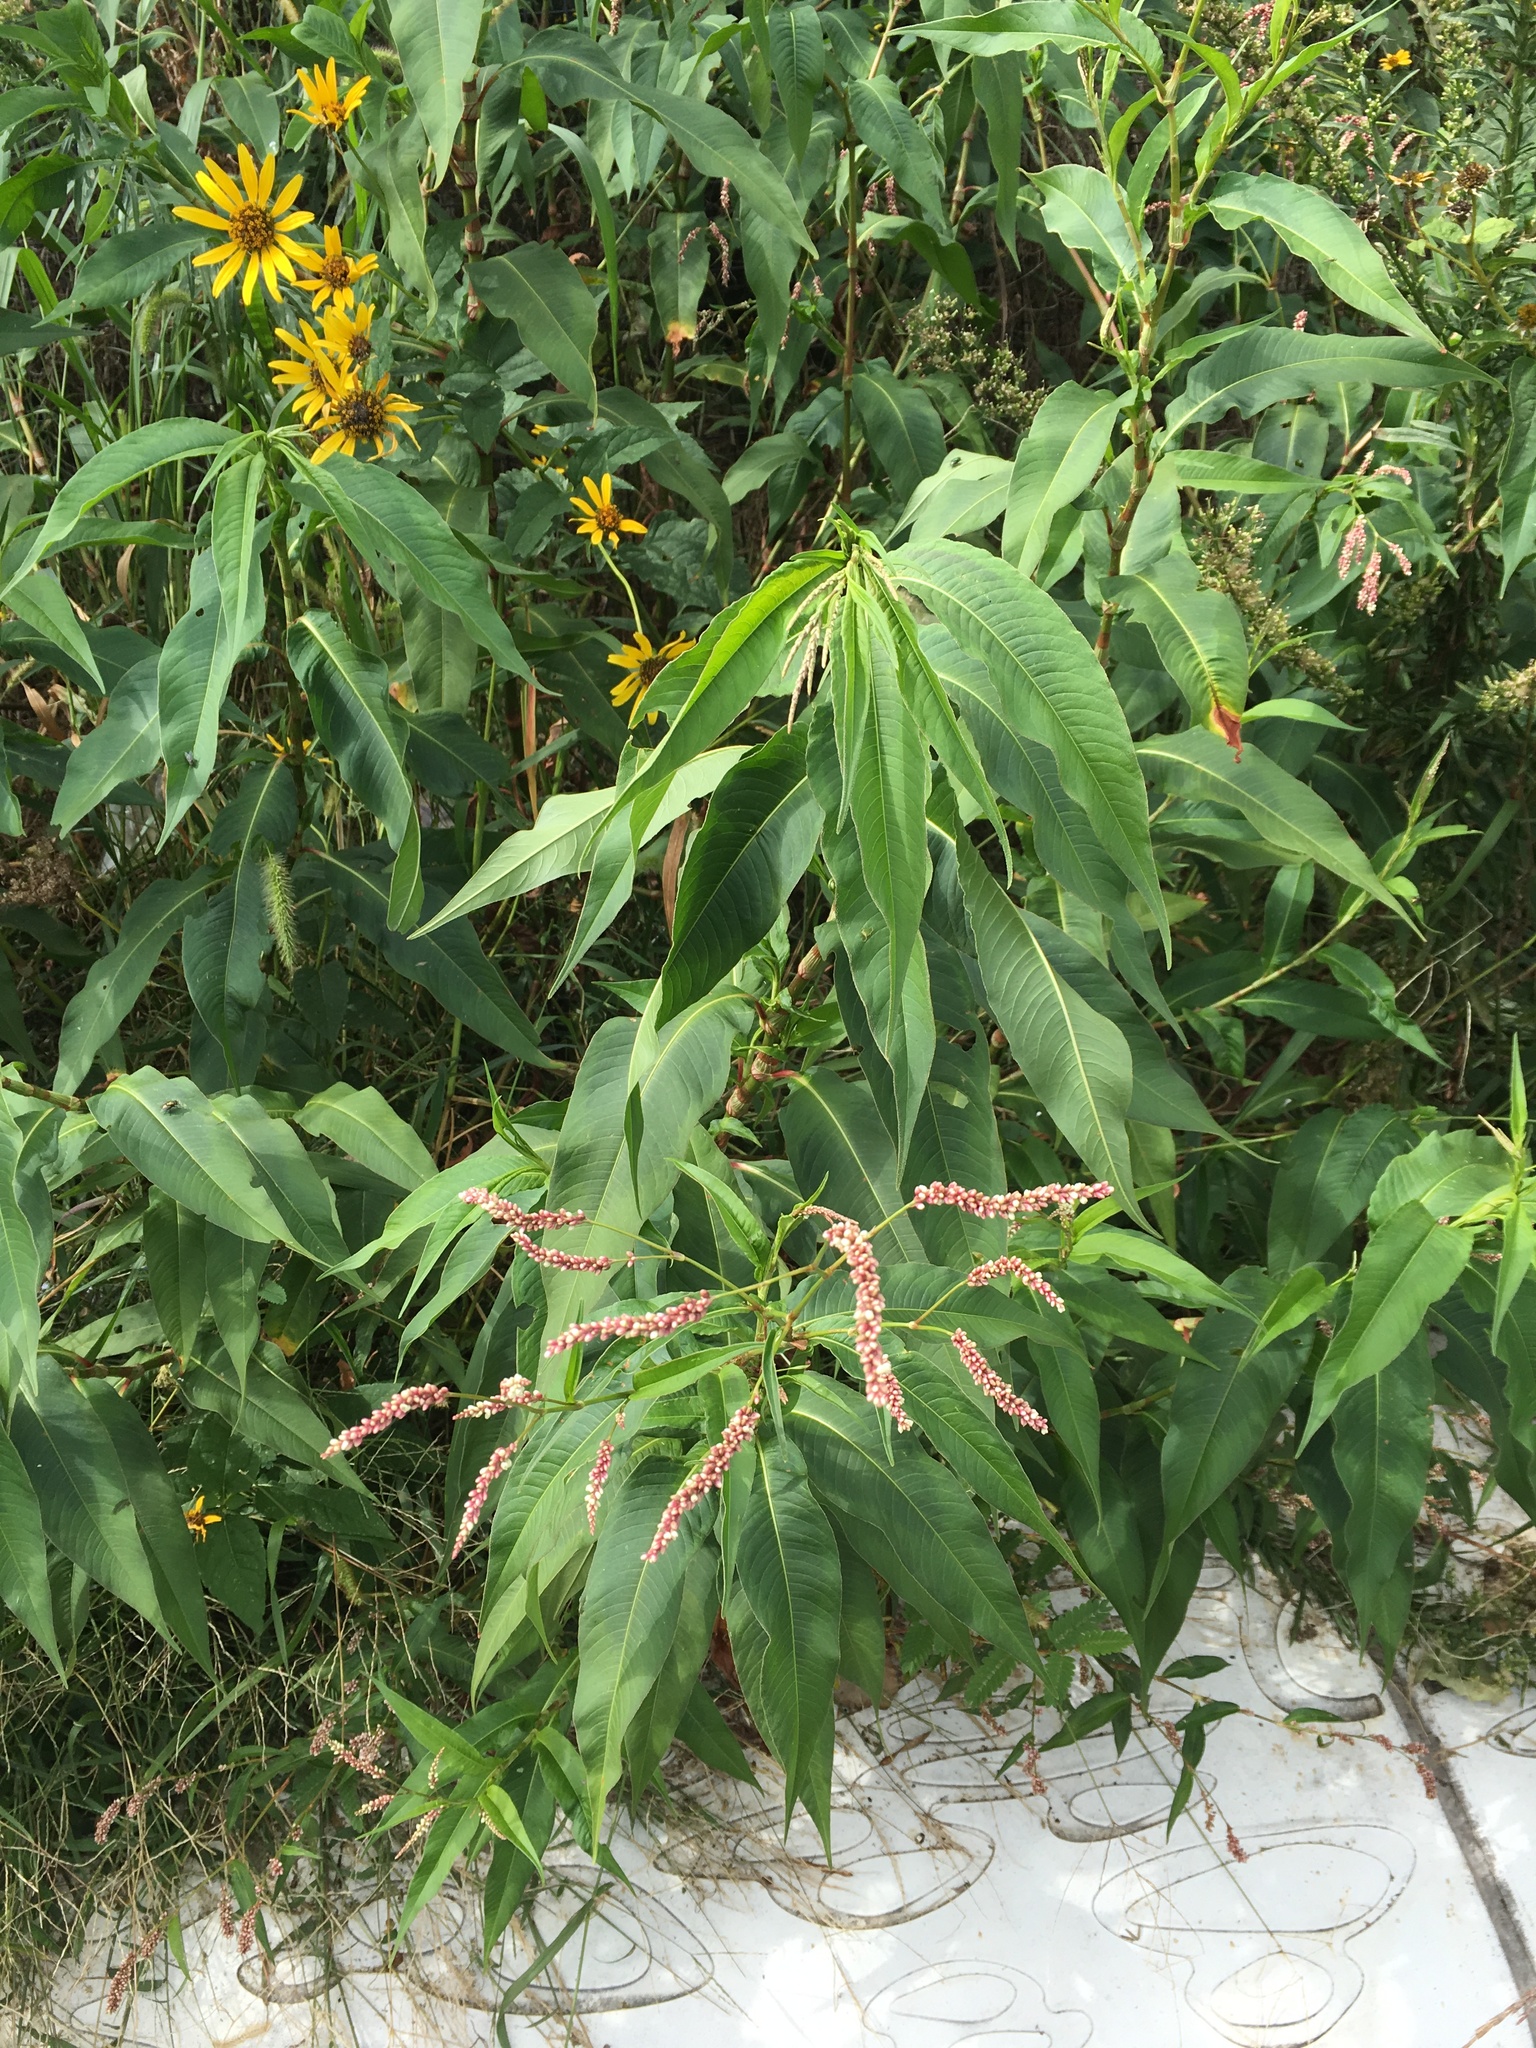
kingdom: Plantae
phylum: Tracheophyta
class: Magnoliopsida
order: Caryophyllales
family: Polygonaceae
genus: Persicaria
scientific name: Persicaria extremiorientalis
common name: Far-eastern smartweed
